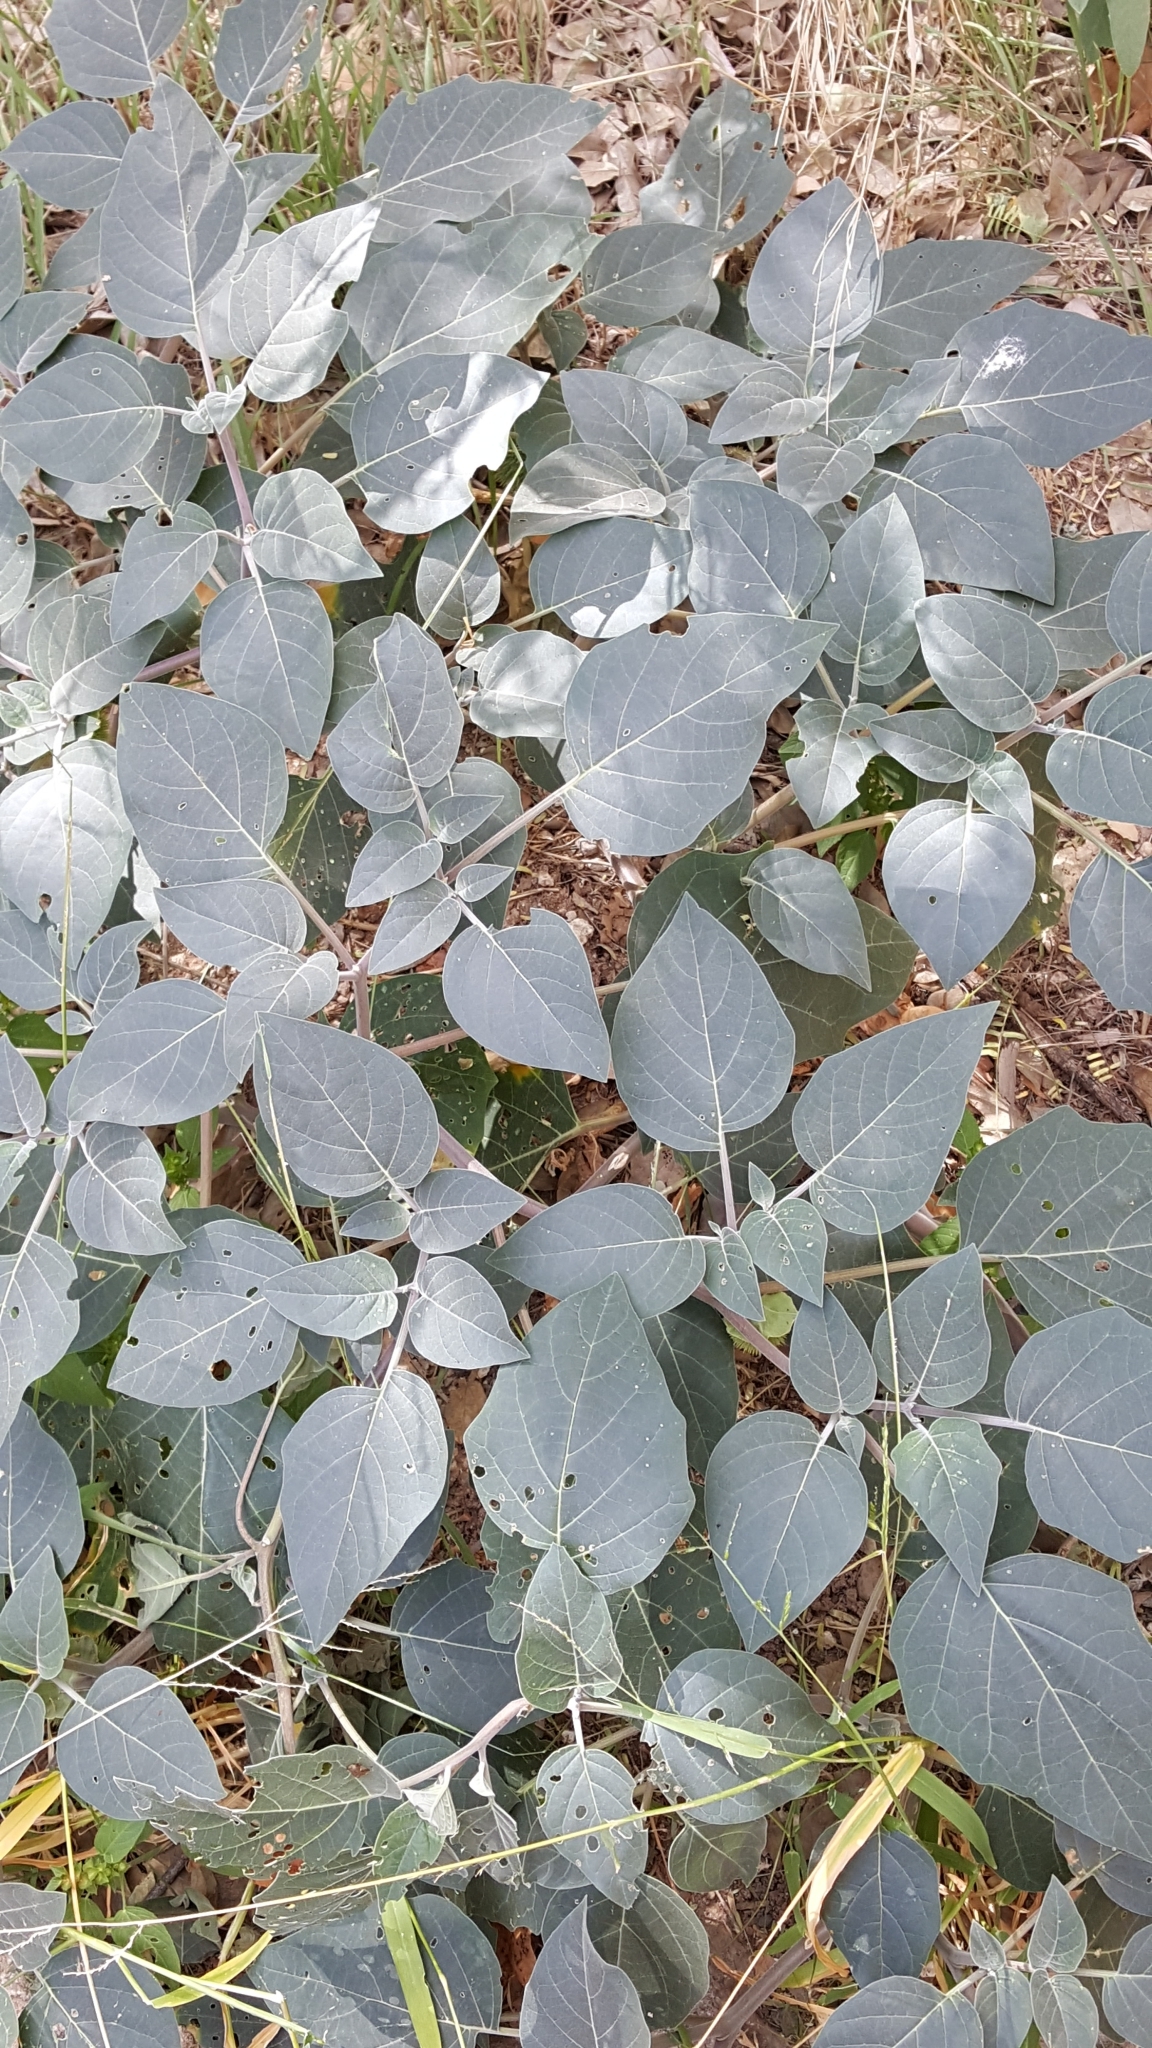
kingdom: Plantae
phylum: Tracheophyta
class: Magnoliopsida
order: Solanales
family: Solanaceae
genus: Datura
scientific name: Datura wrightii
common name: Sacred thorn-apple
